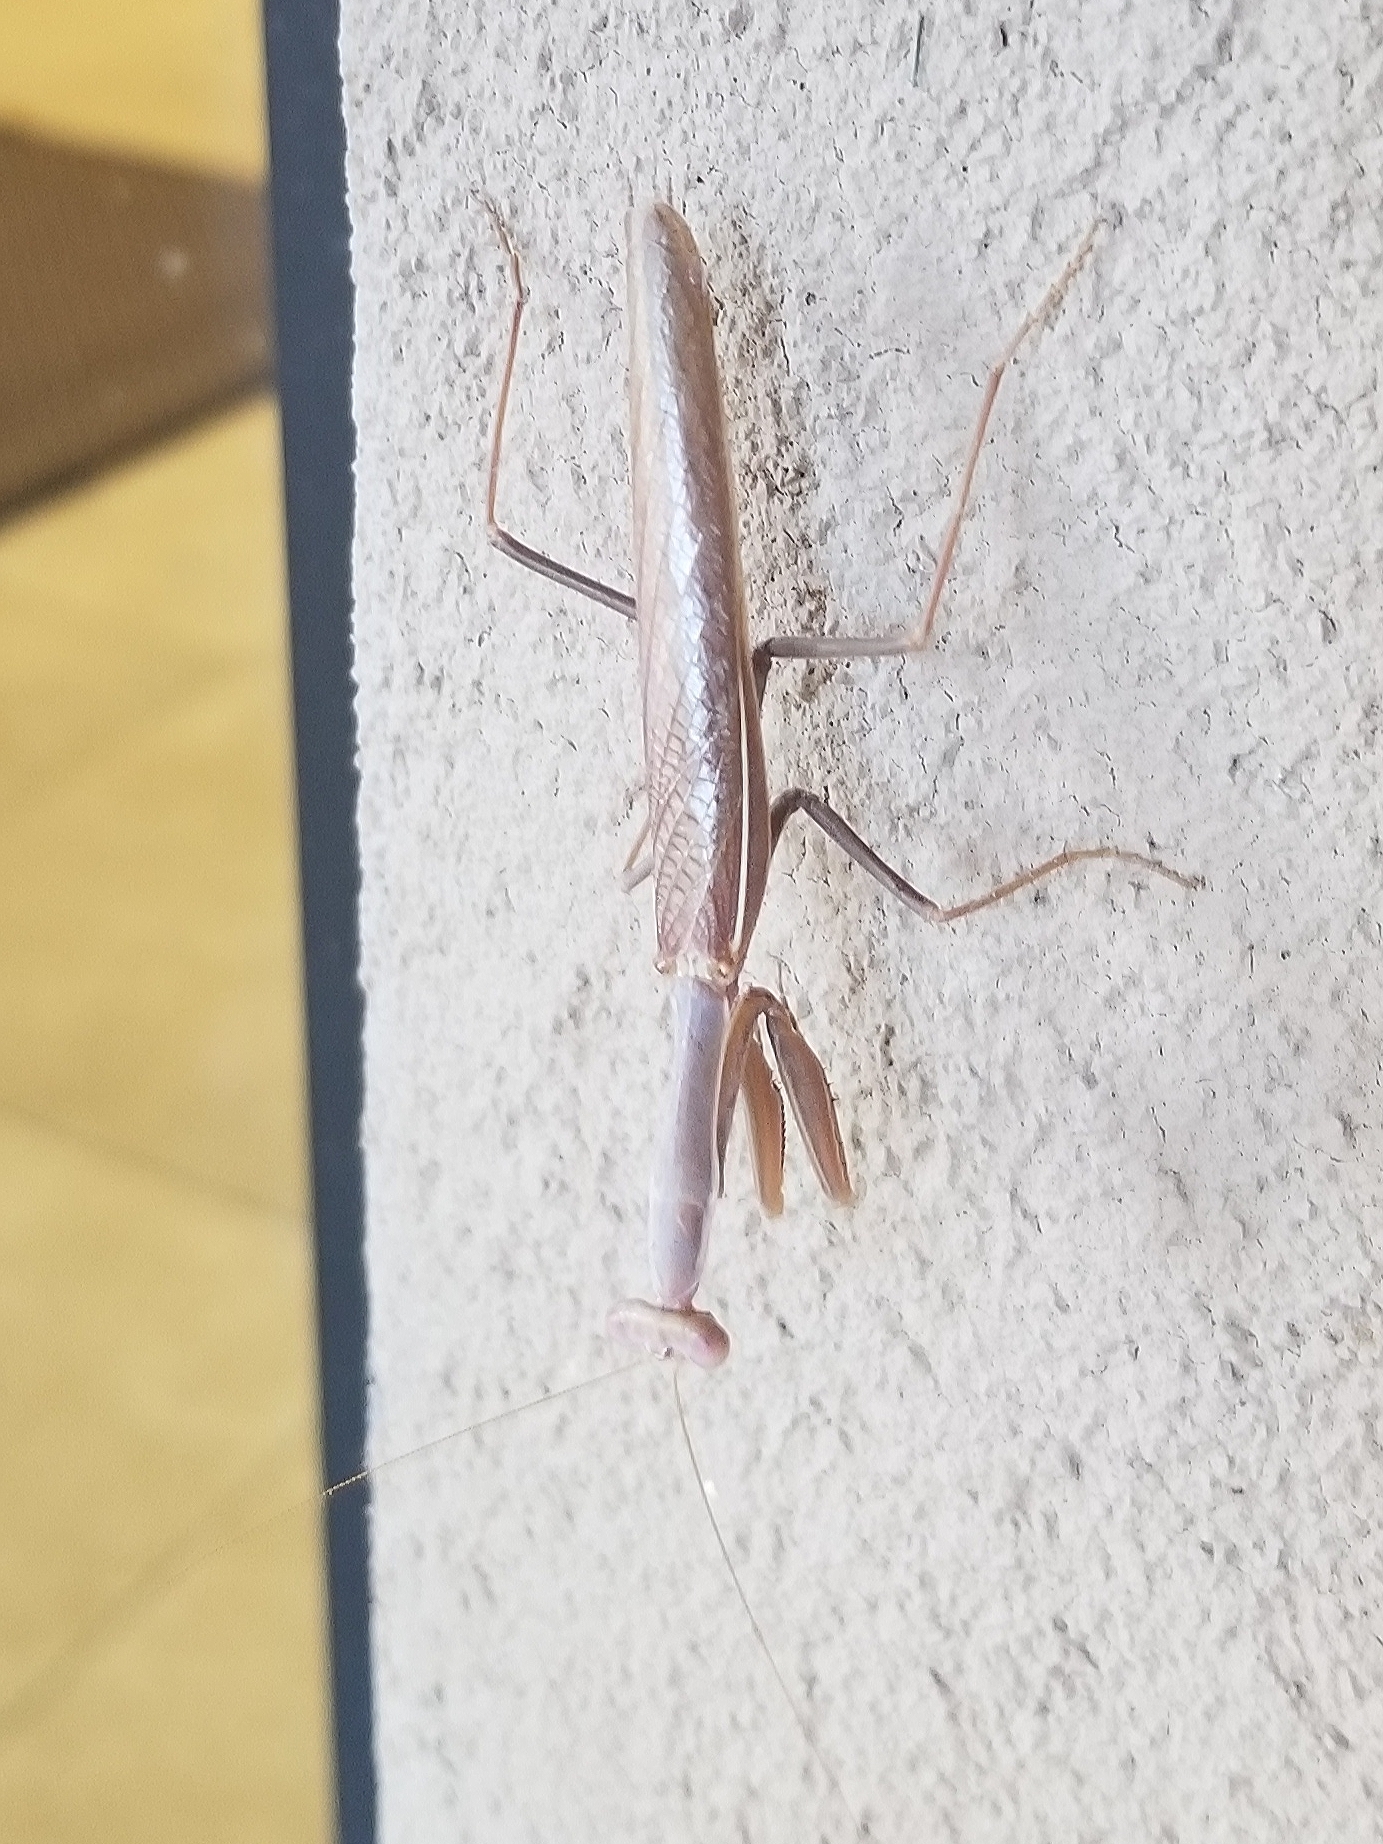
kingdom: Animalia
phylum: Arthropoda
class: Insecta
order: Mantodea
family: Eremiaphilidae
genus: Iris
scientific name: Iris oratoria
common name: Mediterranean mantis
